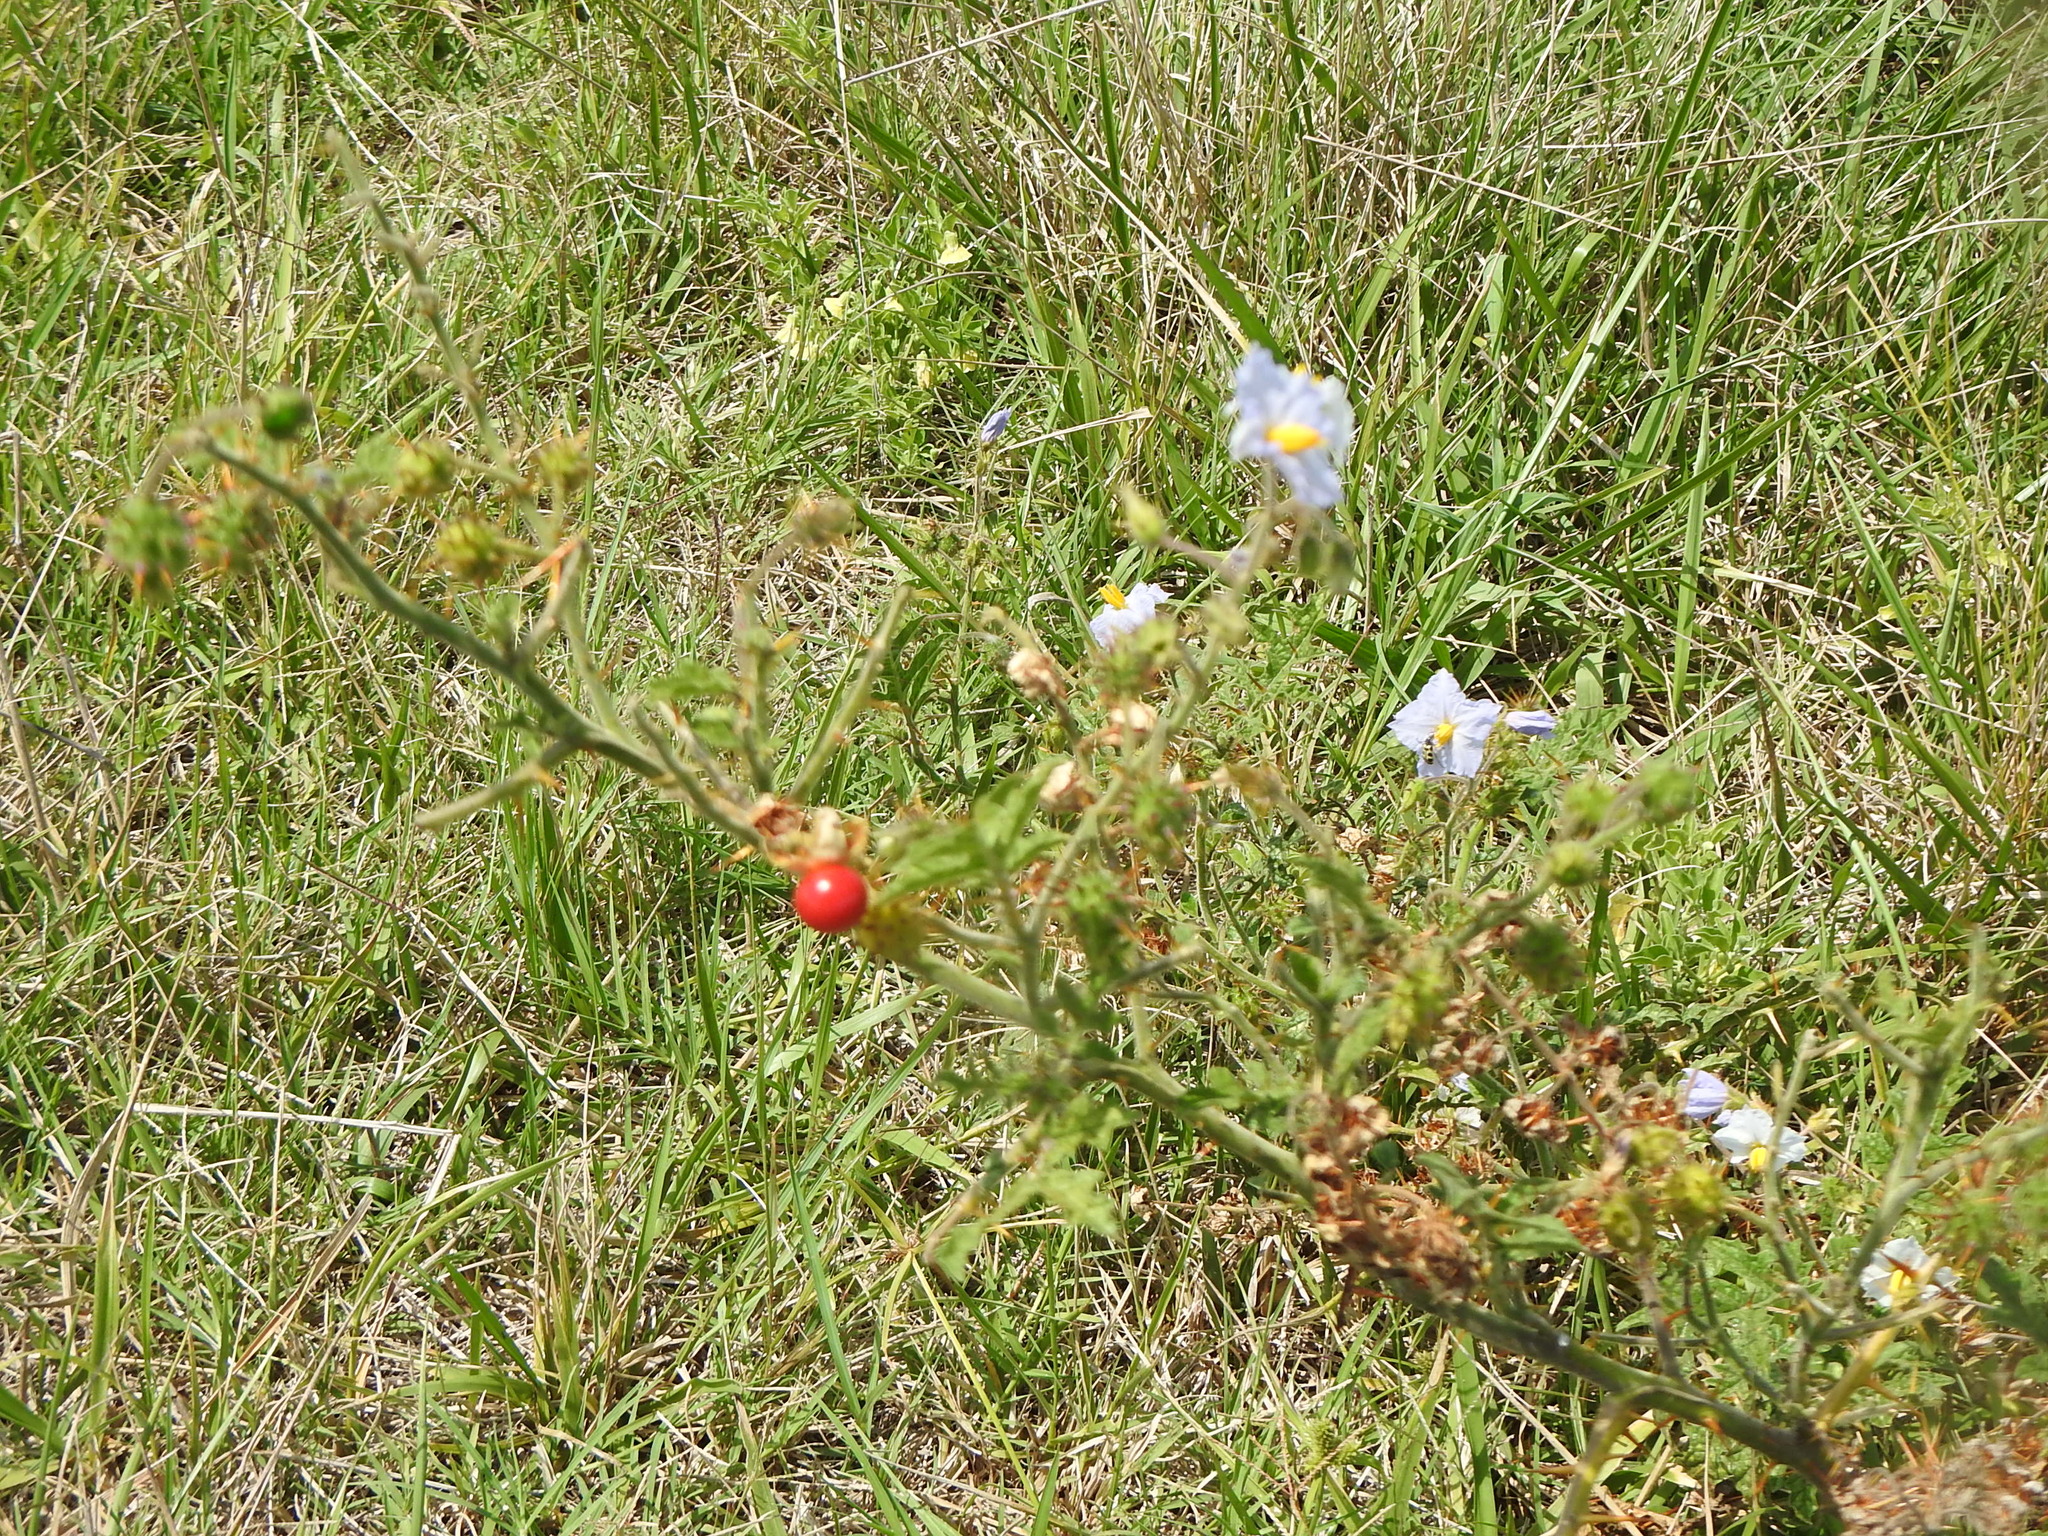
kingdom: Plantae
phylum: Tracheophyta
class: Magnoliopsida
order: Solanales
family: Solanaceae
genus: Solanum
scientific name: Solanum sisymbriifolium
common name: Red buffalo-bur
